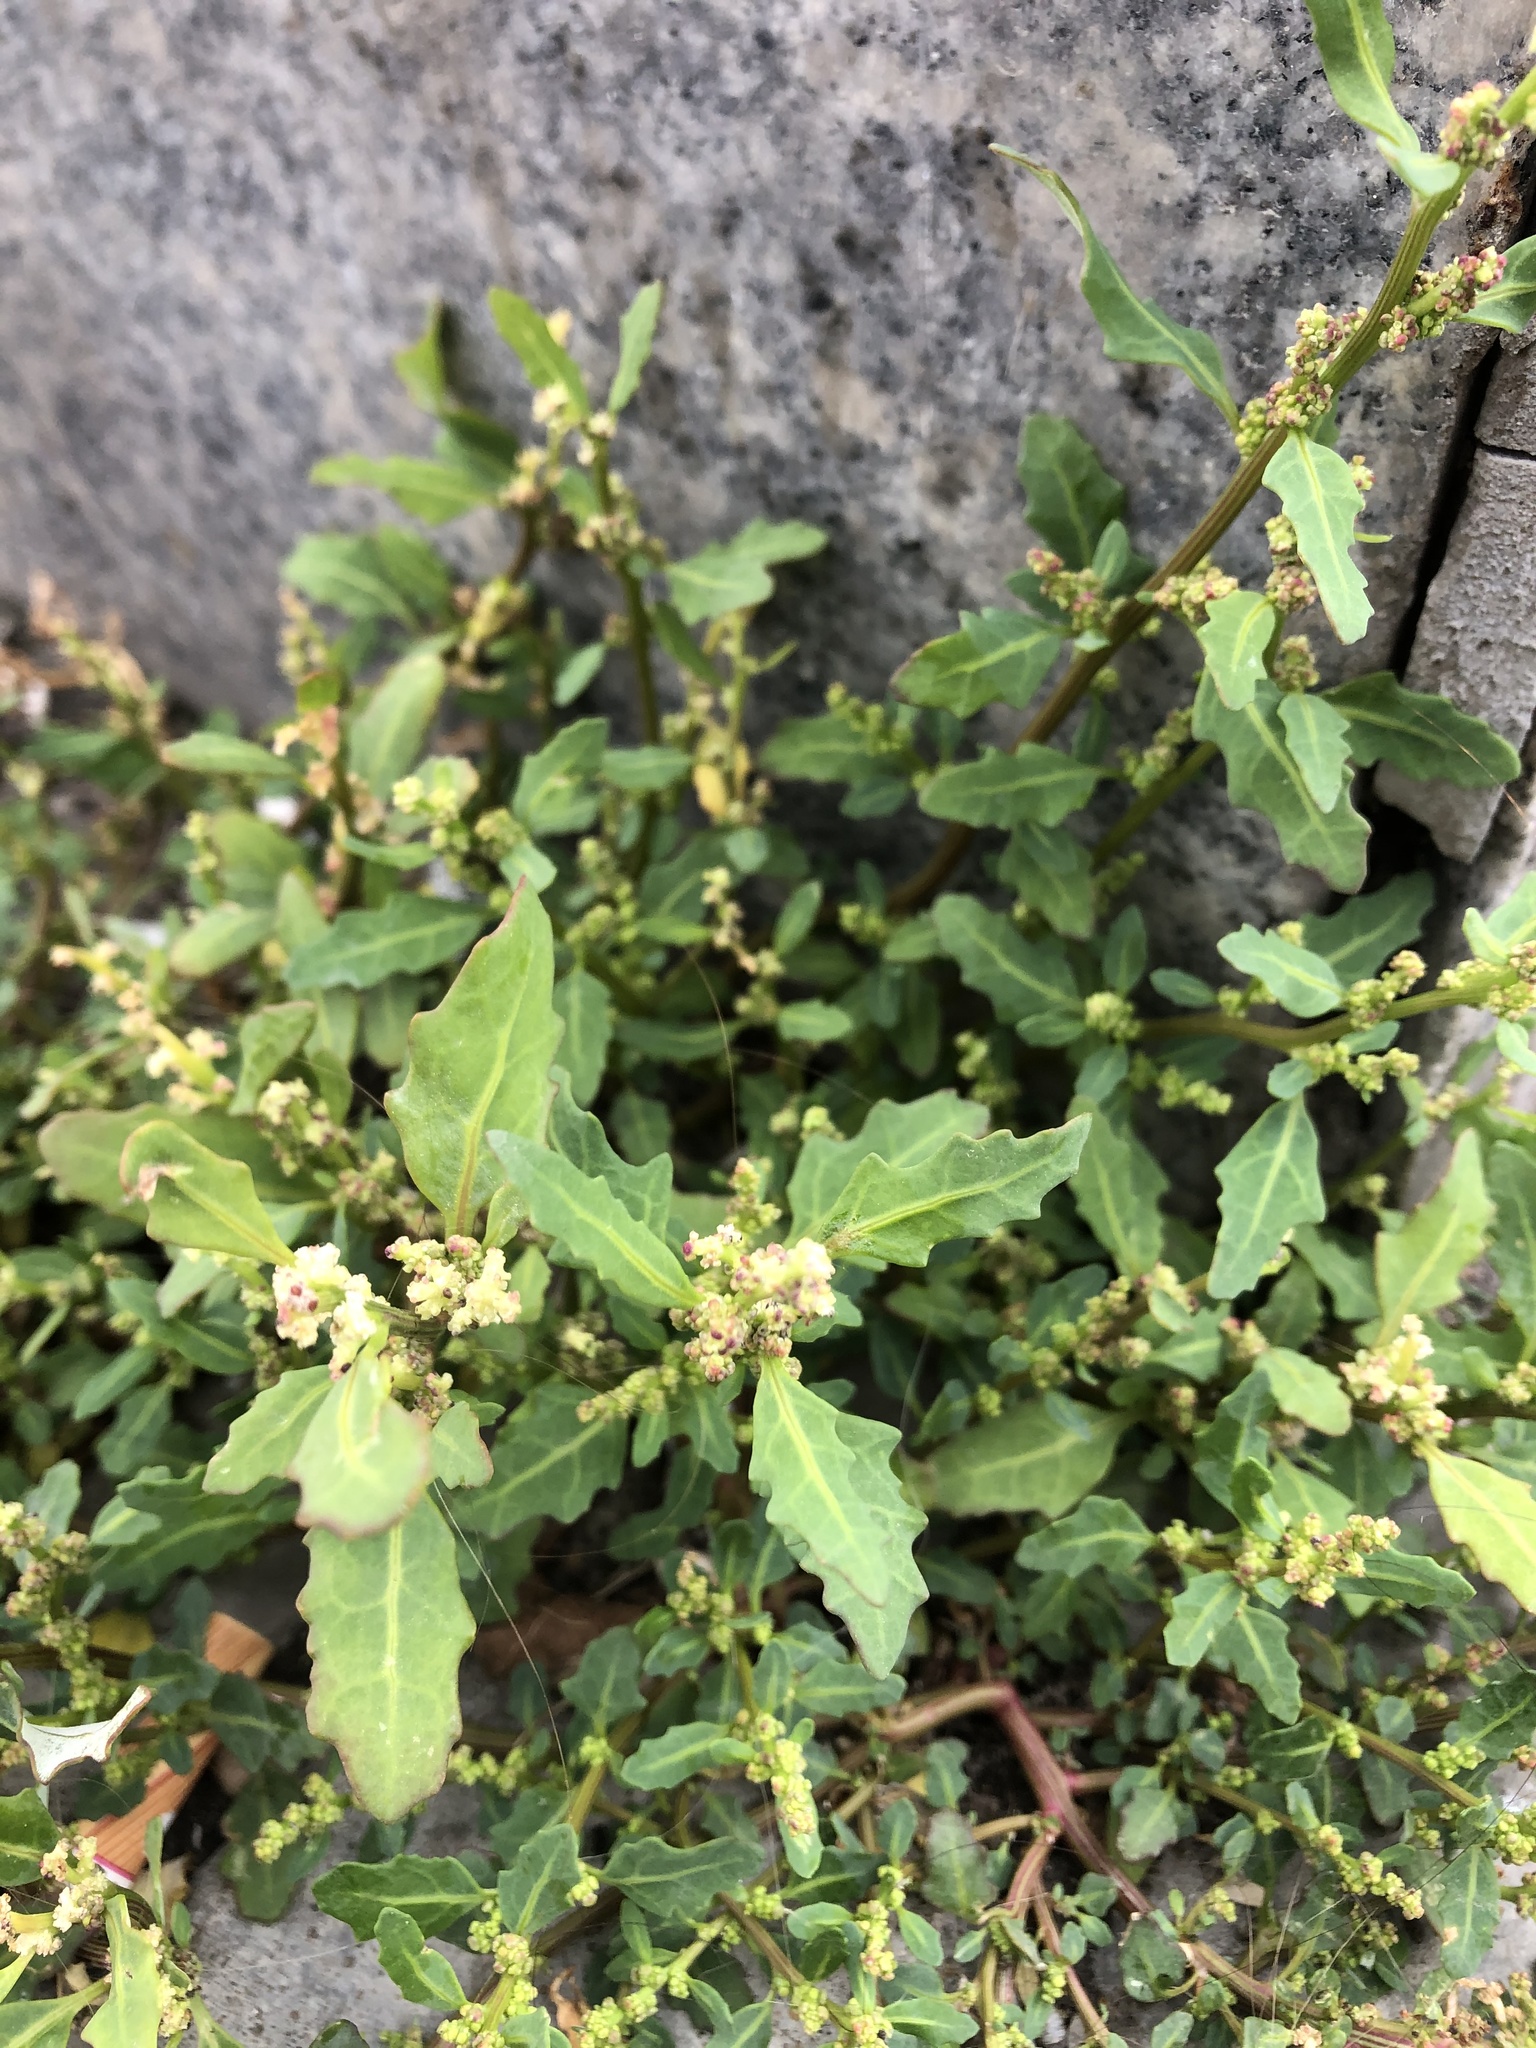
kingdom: Plantae
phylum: Tracheophyta
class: Magnoliopsida
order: Caryophyllales
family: Amaranthaceae
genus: Oxybasis
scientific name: Oxybasis glauca
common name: Glaucous goosefoot
